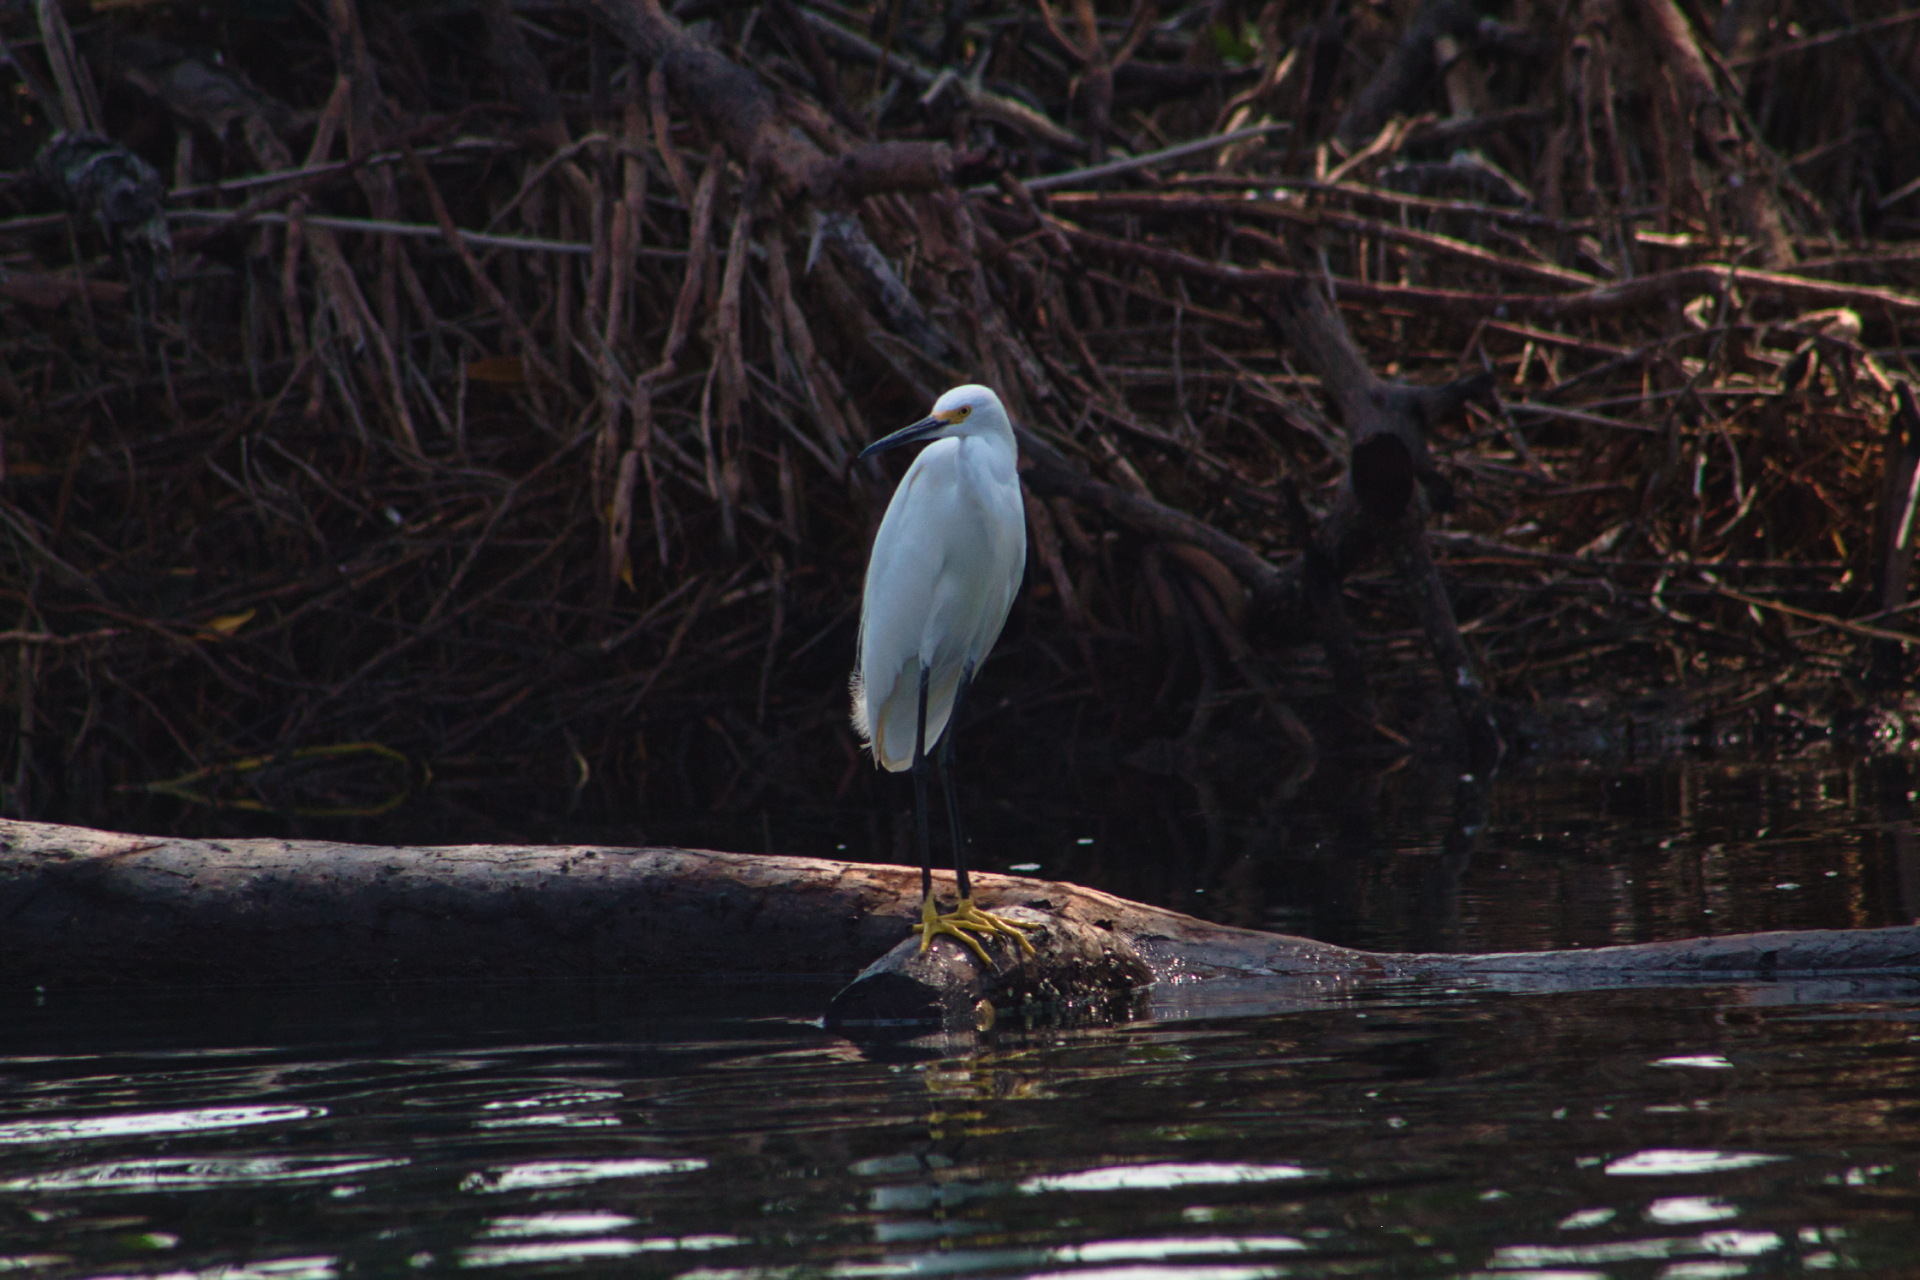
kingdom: Animalia
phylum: Chordata
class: Aves
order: Pelecaniformes
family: Ardeidae
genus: Egretta
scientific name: Egretta thula
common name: Snowy egret
